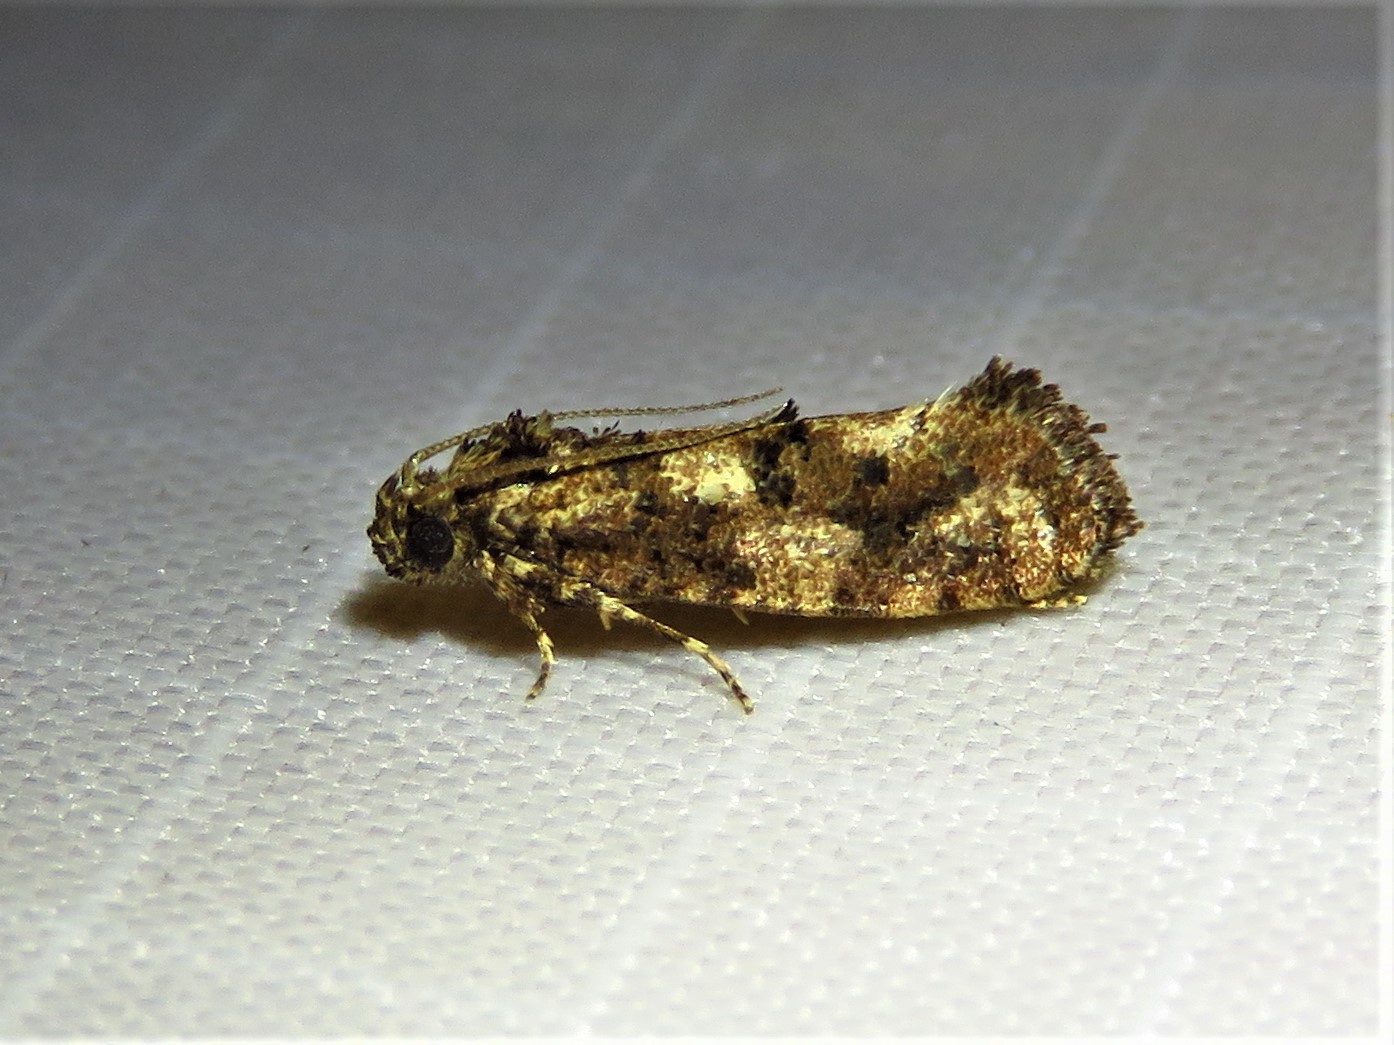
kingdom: Animalia
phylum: Arthropoda
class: Insecta
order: Lepidoptera
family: Tineidae
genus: Acrolophus
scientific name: Acrolophus cressoni
